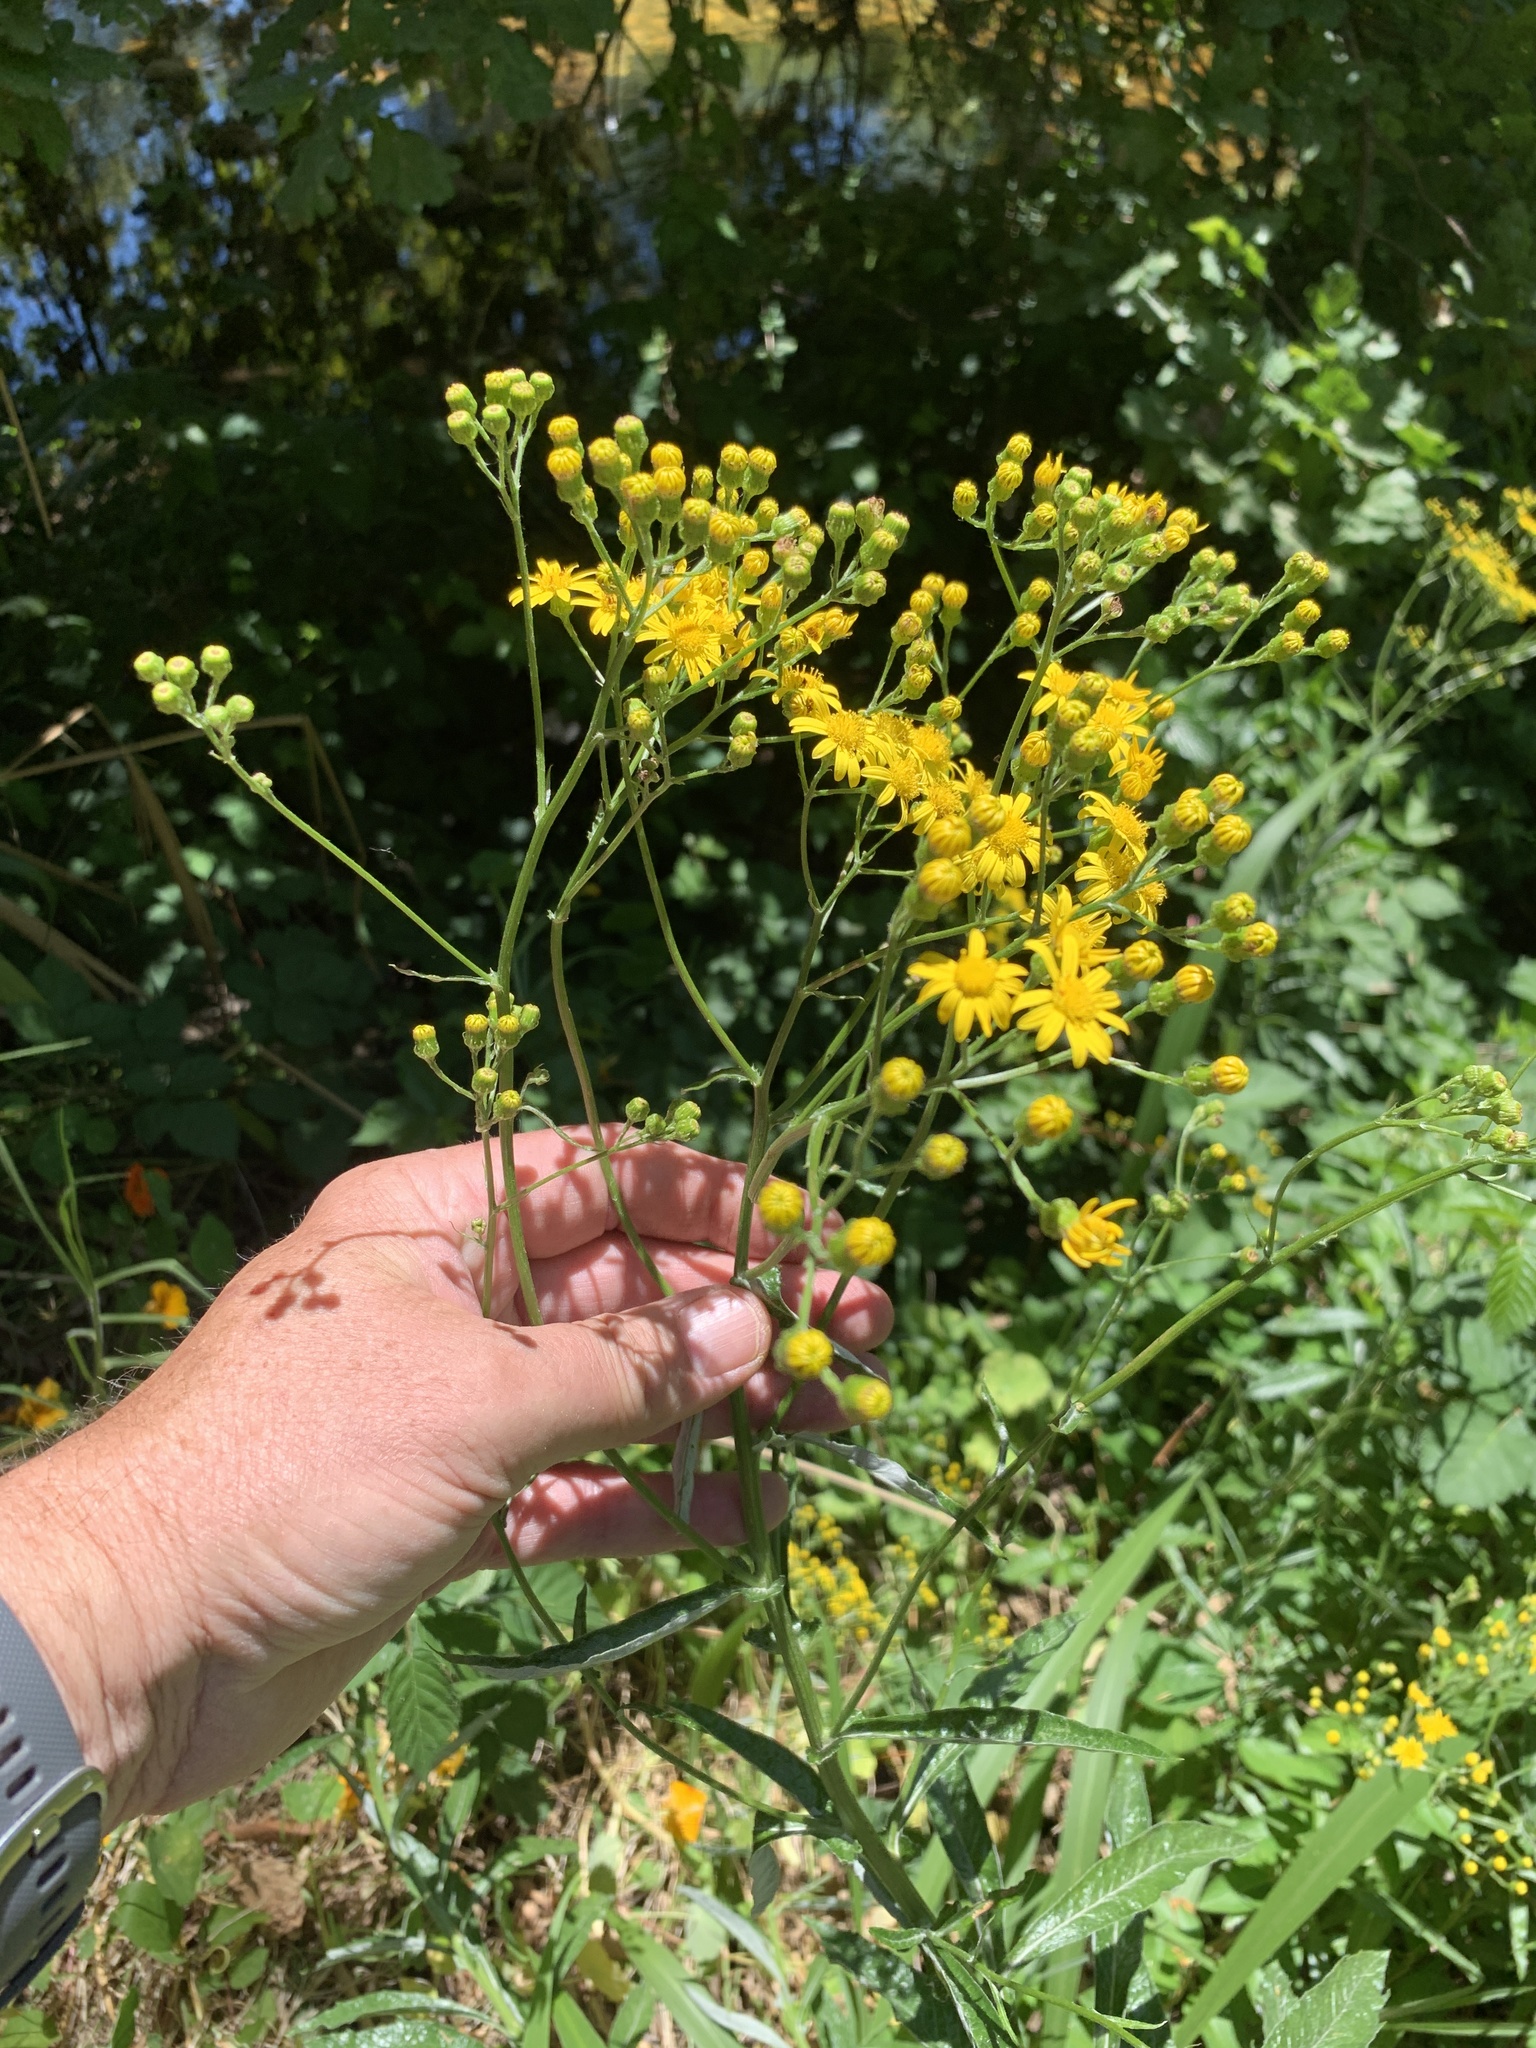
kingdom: Plantae
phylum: Tracheophyta
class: Magnoliopsida
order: Asterales
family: Asteraceae
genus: Senecio
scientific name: Senecio pterophorus
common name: Shoddy ragwort
